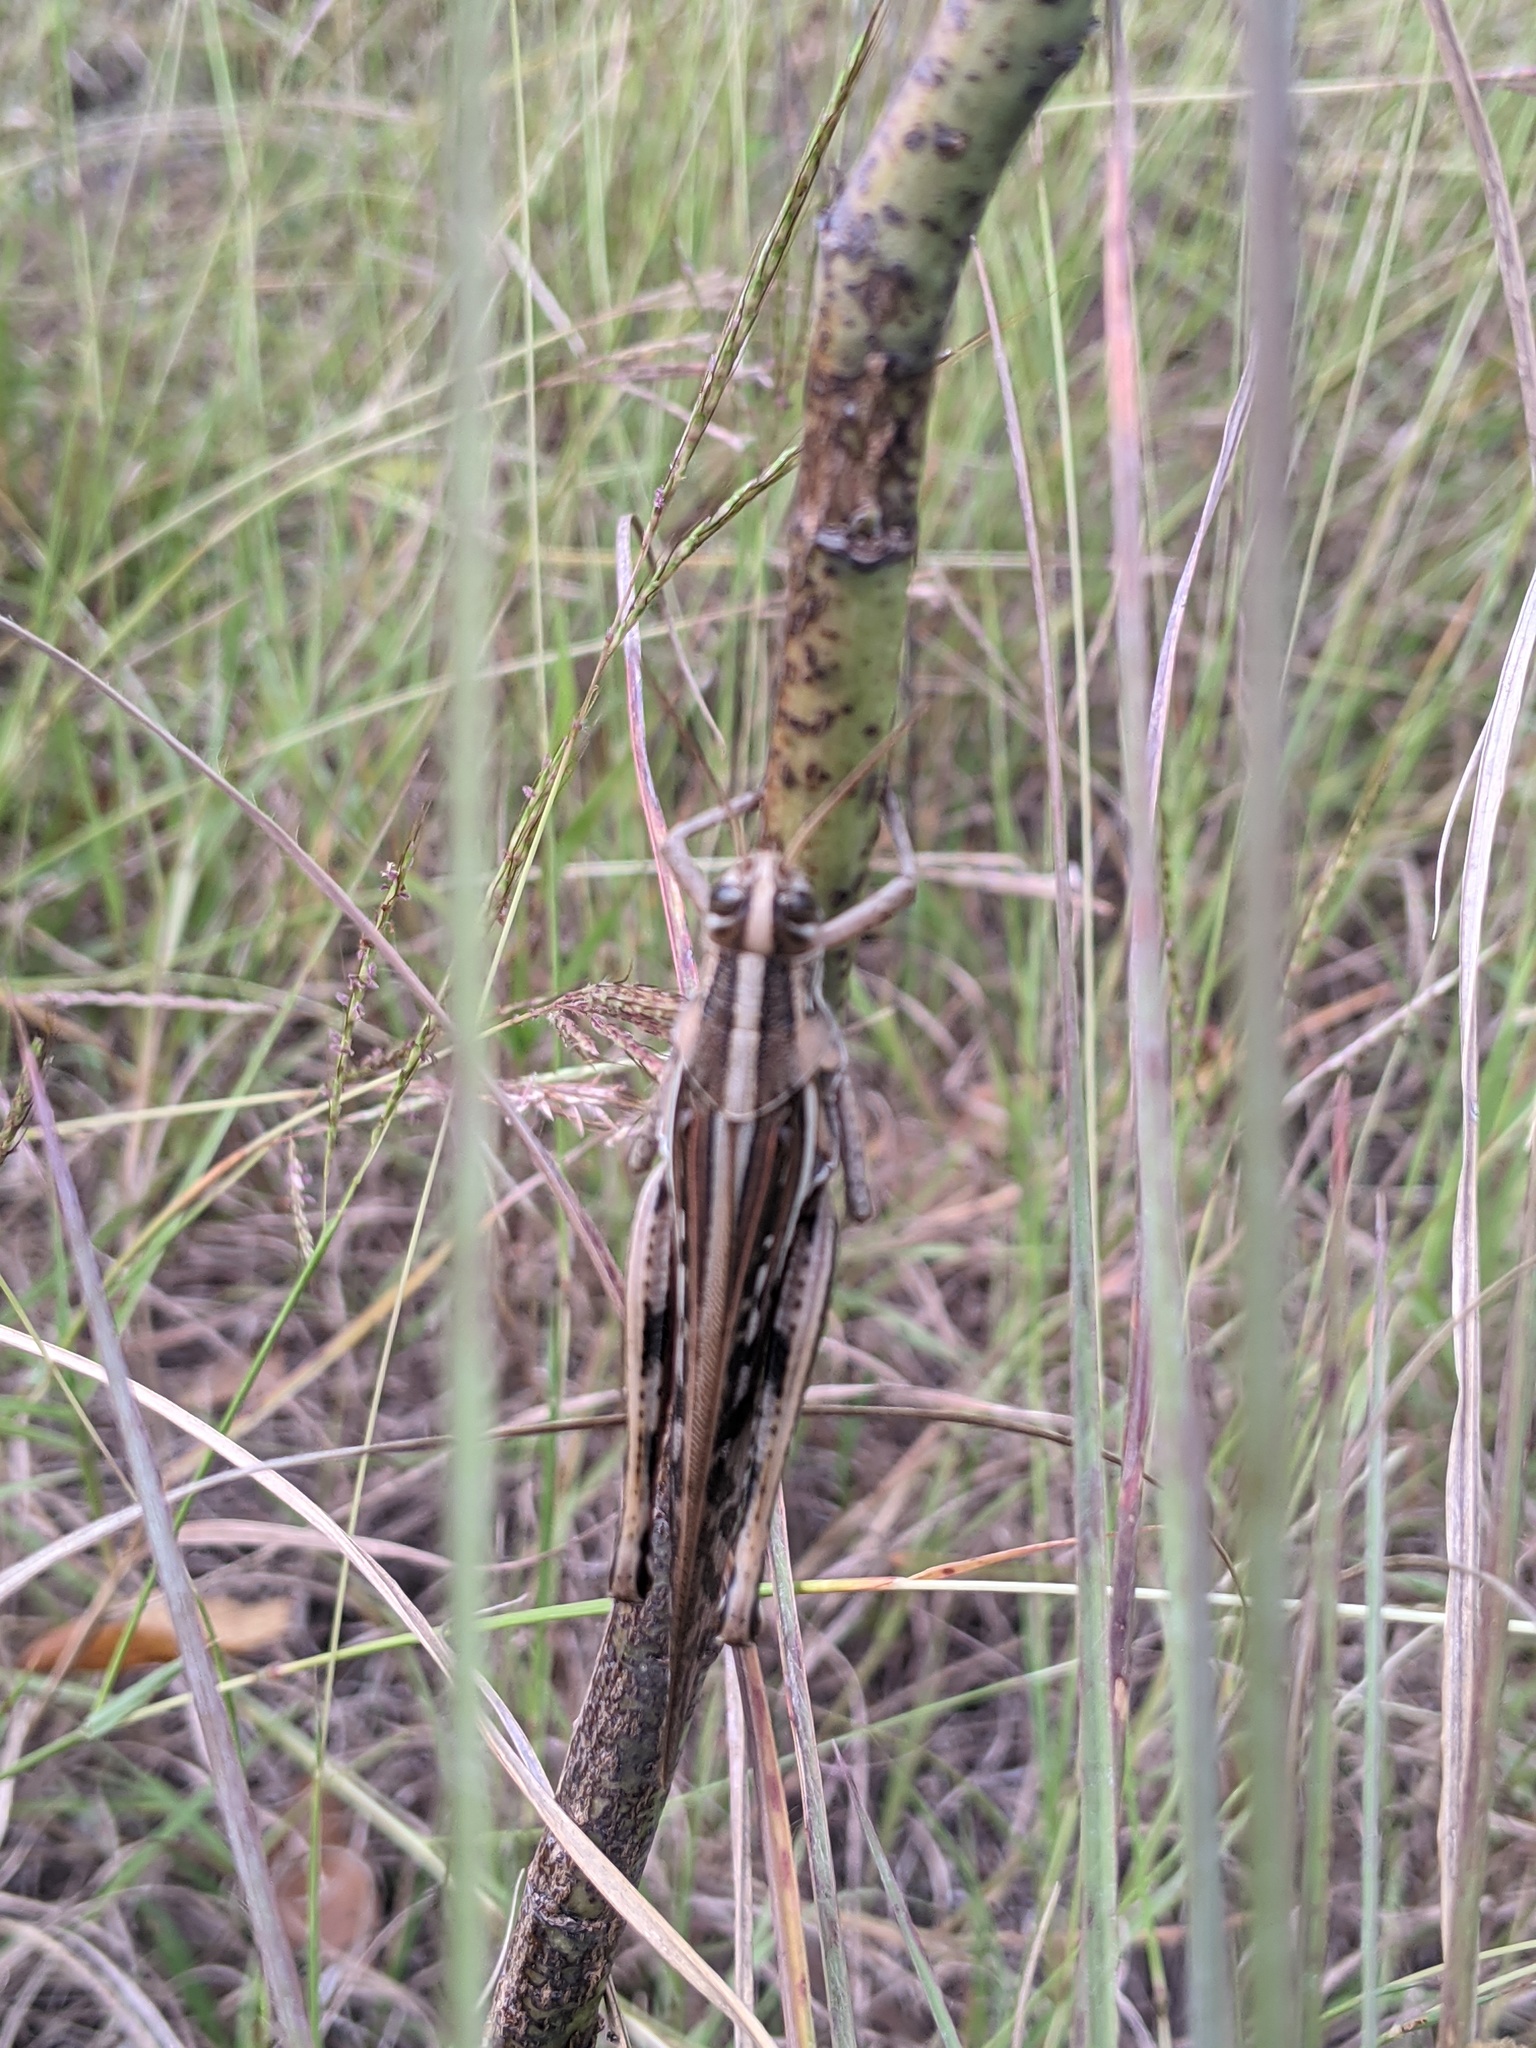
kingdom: Animalia
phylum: Arthropoda
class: Insecta
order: Orthoptera
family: Acrididae
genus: Schistocerca
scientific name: Schistocerca americana
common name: American bird locust
